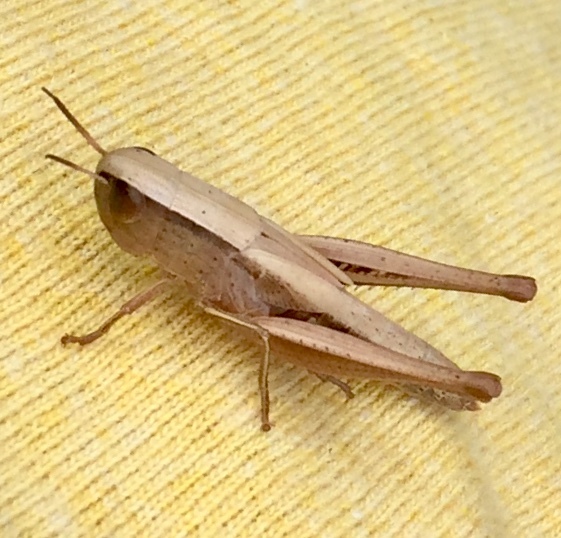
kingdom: Animalia
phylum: Arthropoda
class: Insecta
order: Orthoptera
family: Acrididae
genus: Amblytropidia
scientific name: Amblytropidia mysteca
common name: Brown winter grasshopper
